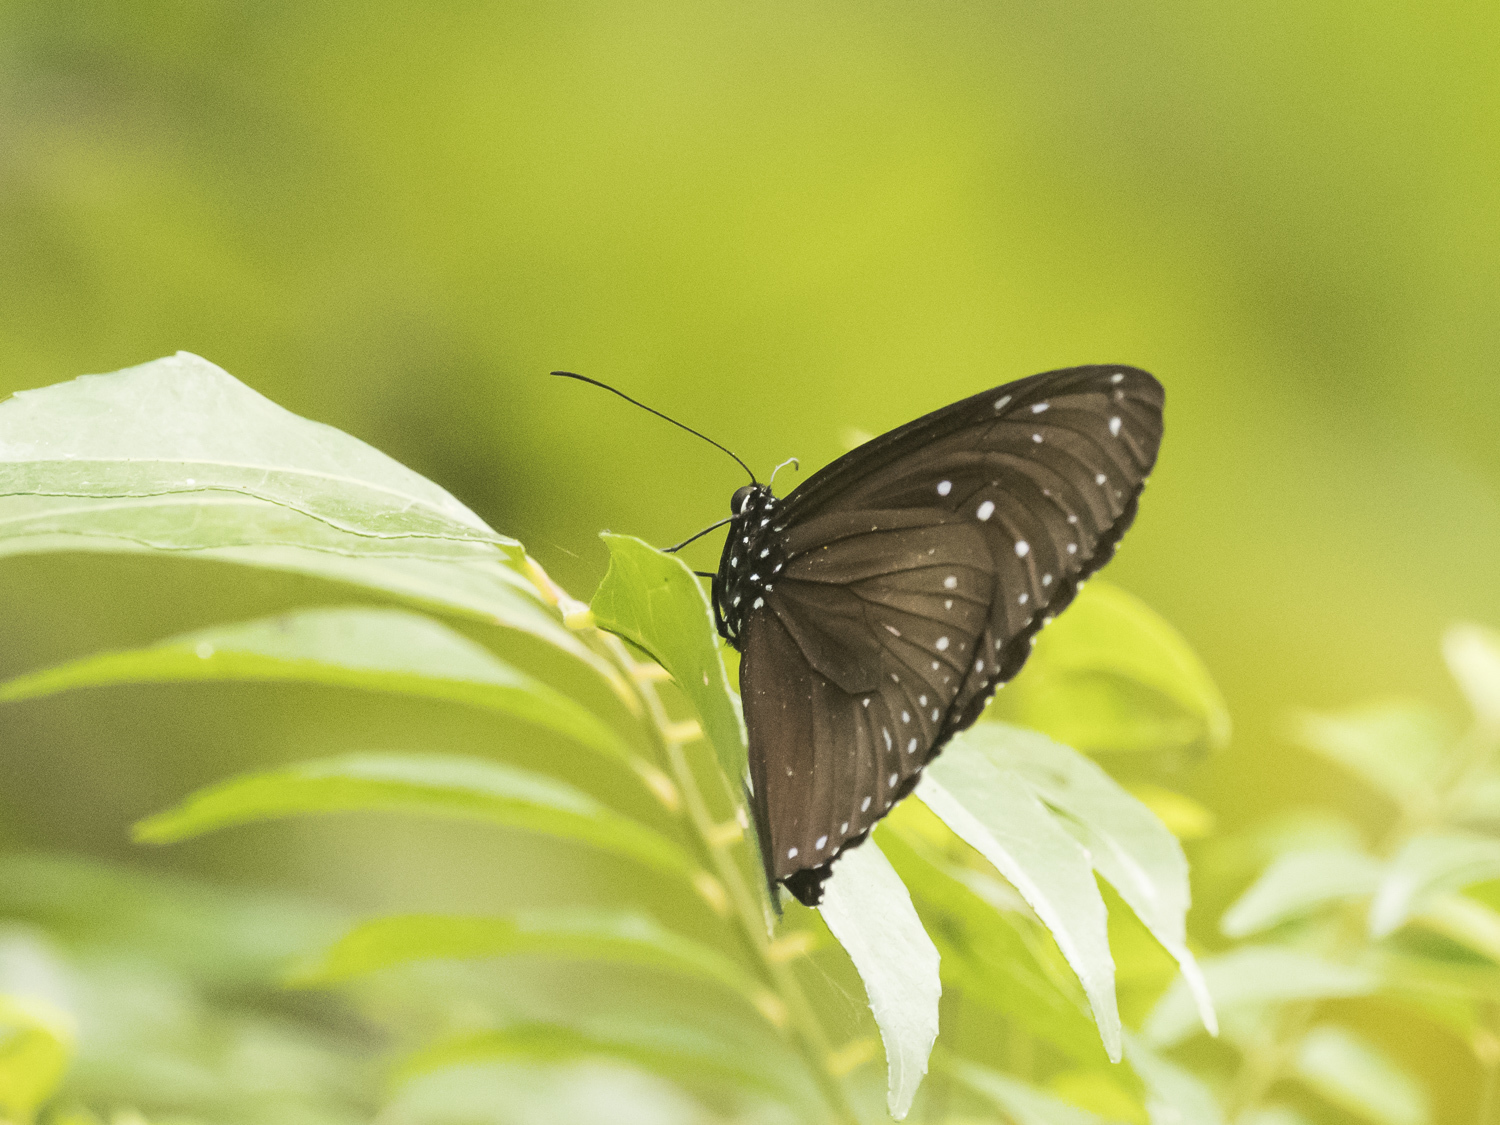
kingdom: Animalia
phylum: Arthropoda
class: Insecta
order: Lepidoptera
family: Nymphalidae
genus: Euploea
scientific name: Euploea mulciber
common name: Striped blue crow butterfly
